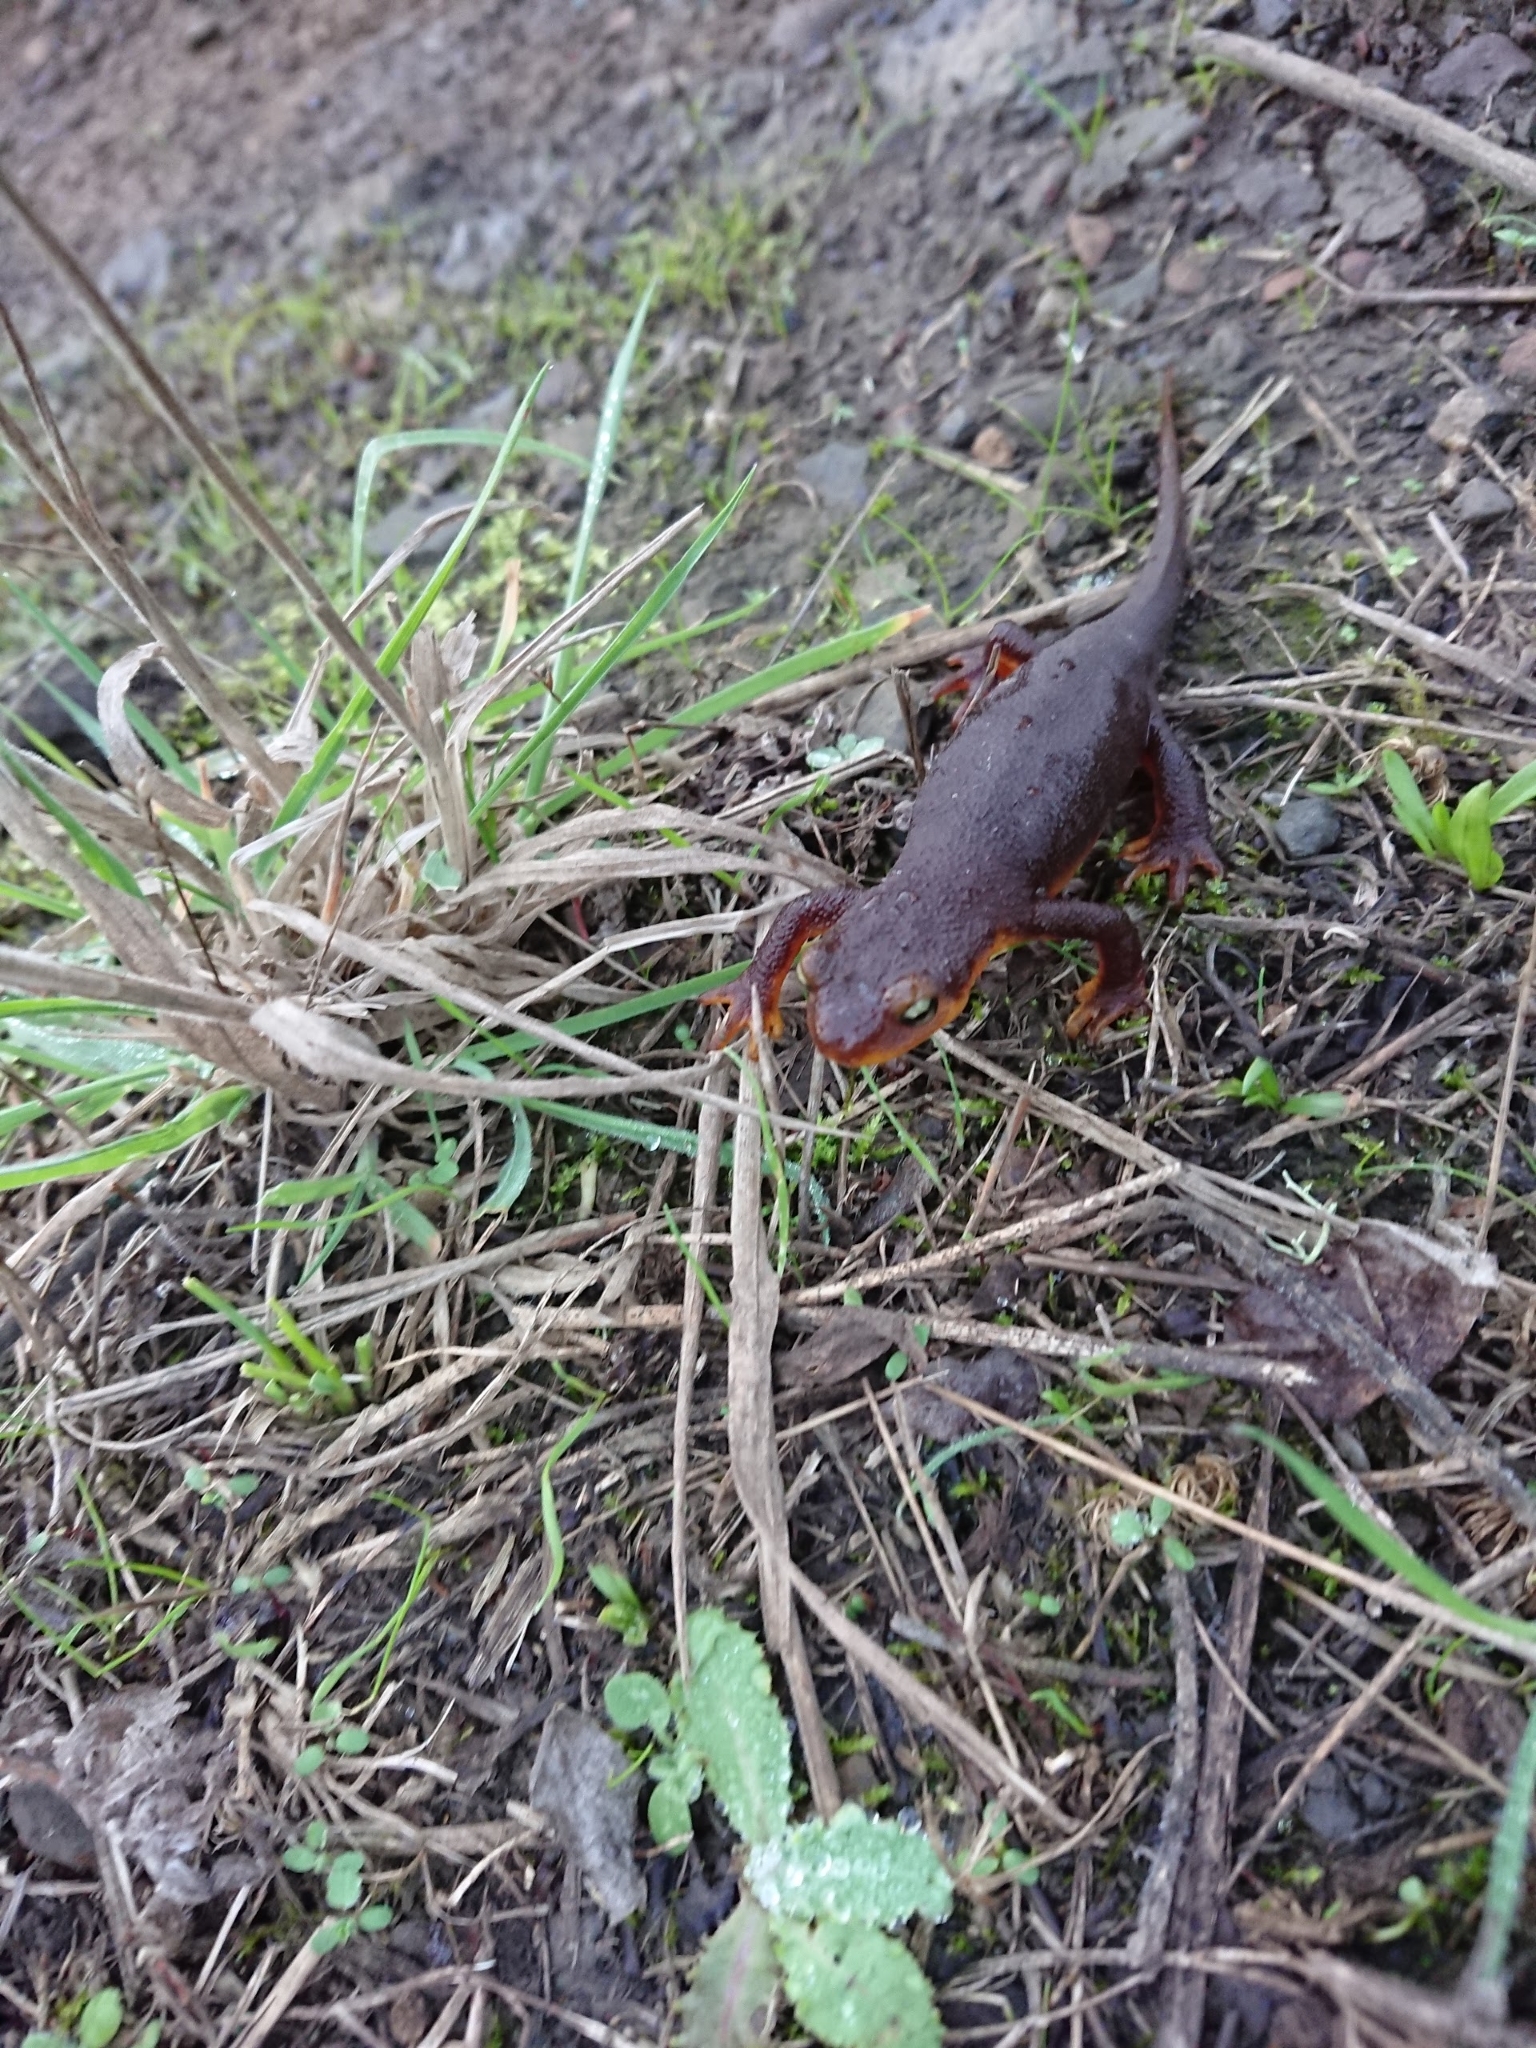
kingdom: Animalia
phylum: Chordata
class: Amphibia
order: Caudata
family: Salamandridae
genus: Taricha
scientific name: Taricha torosa
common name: California newt
